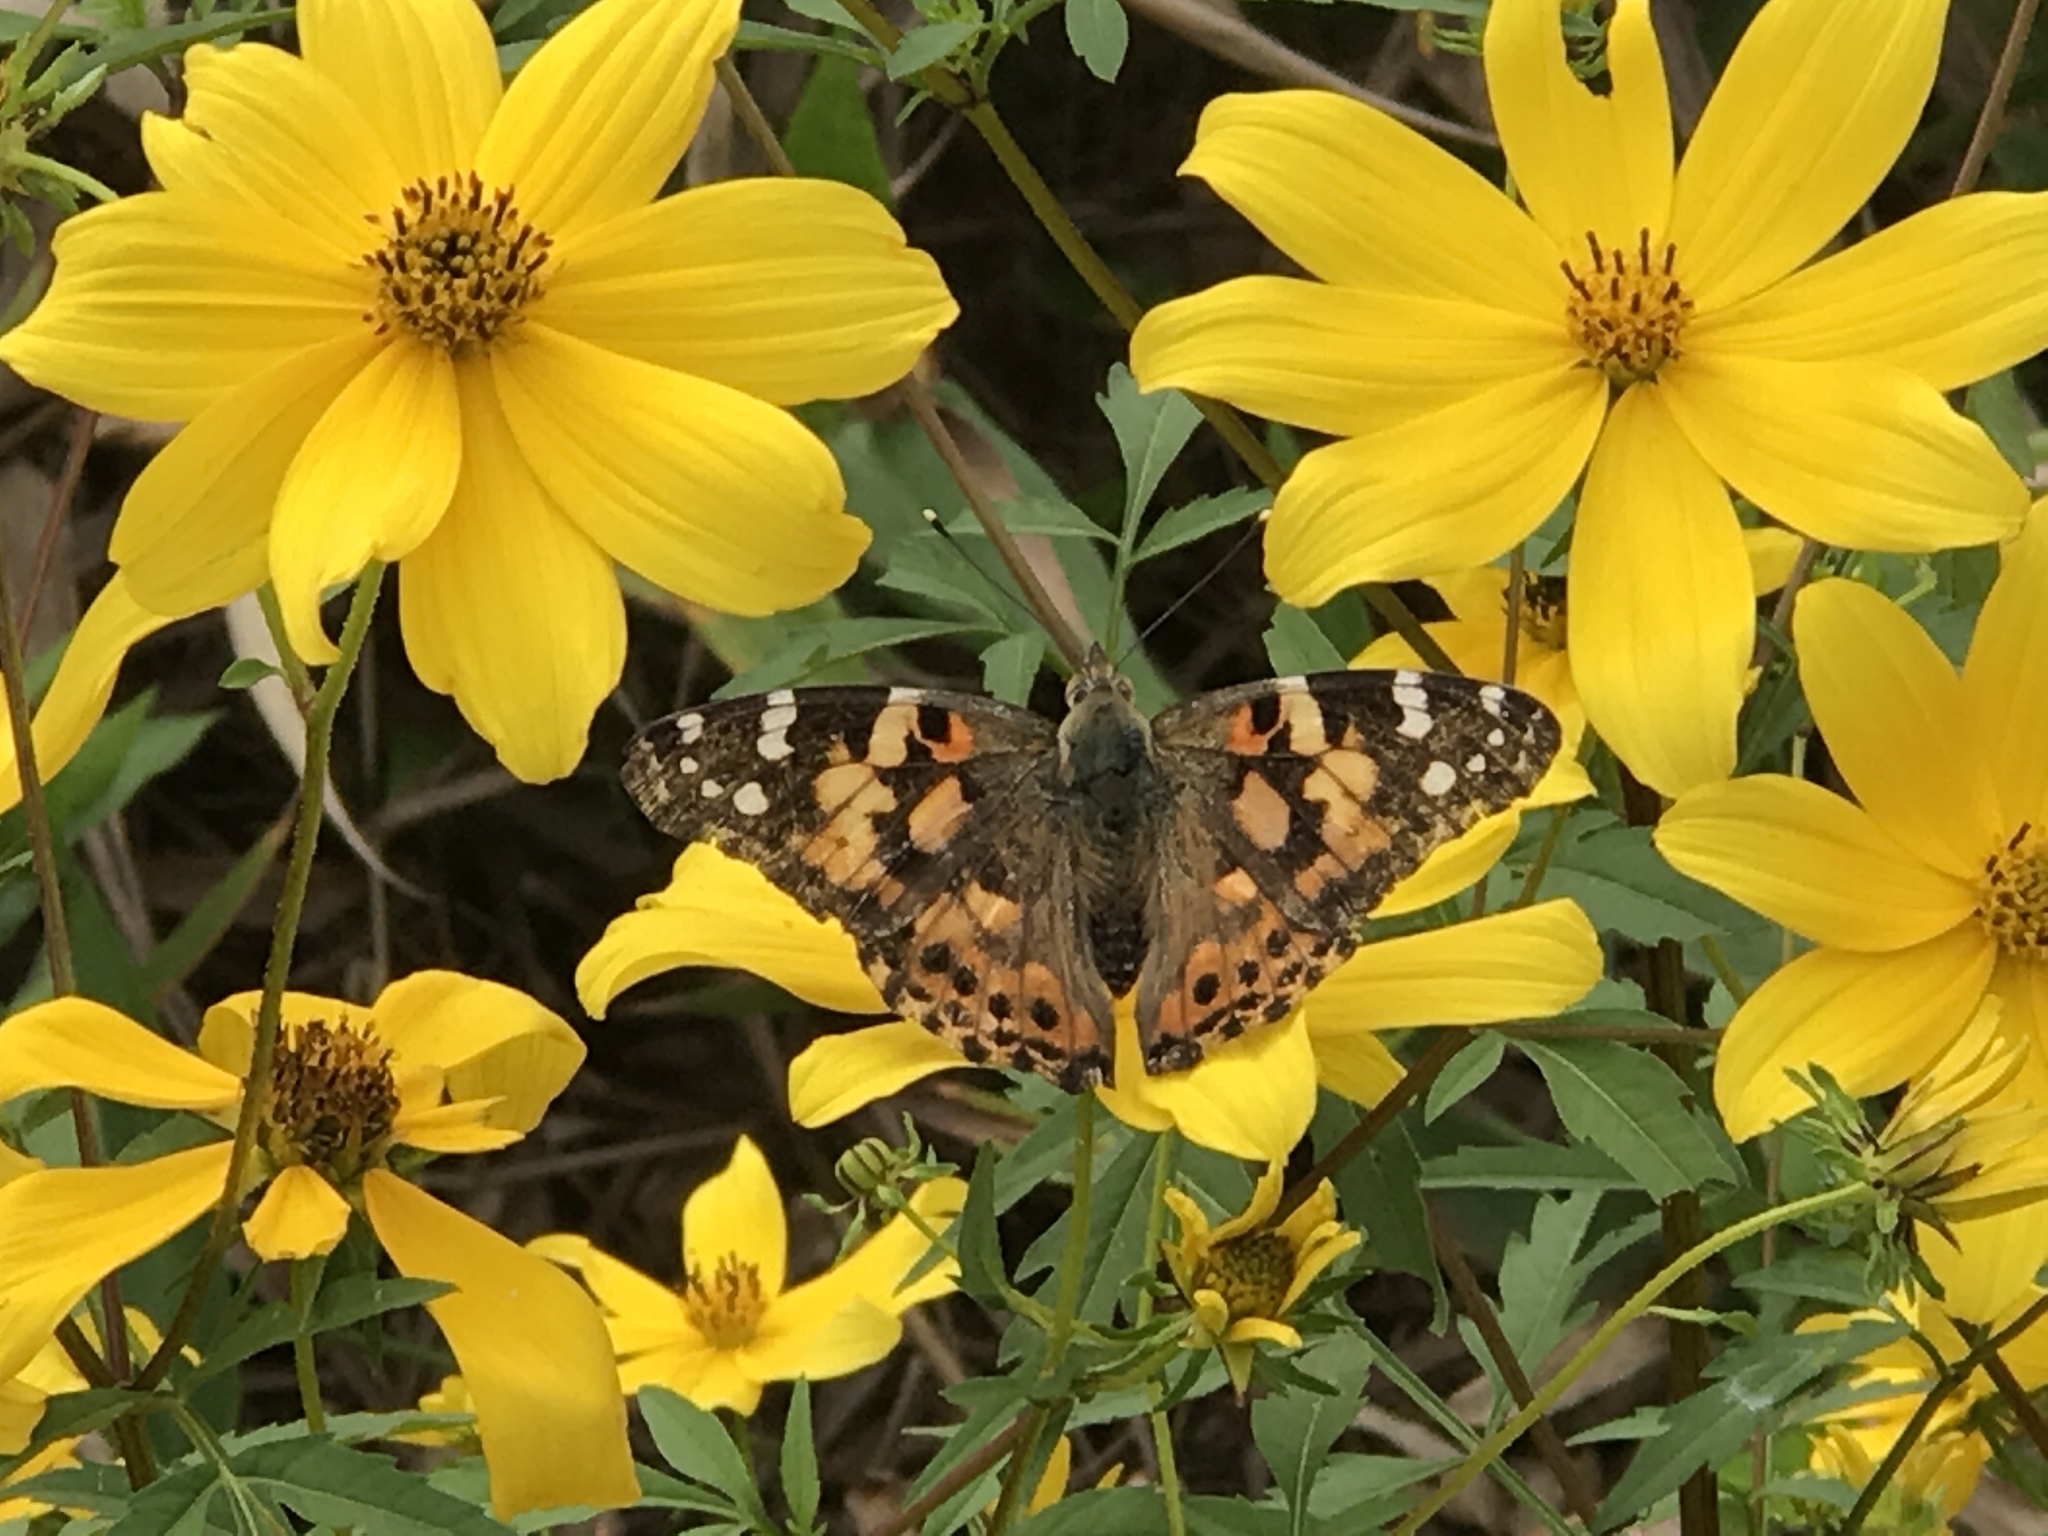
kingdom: Animalia
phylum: Arthropoda
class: Insecta
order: Lepidoptera
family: Nymphalidae
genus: Vanessa
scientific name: Vanessa cardui
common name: Painted lady
